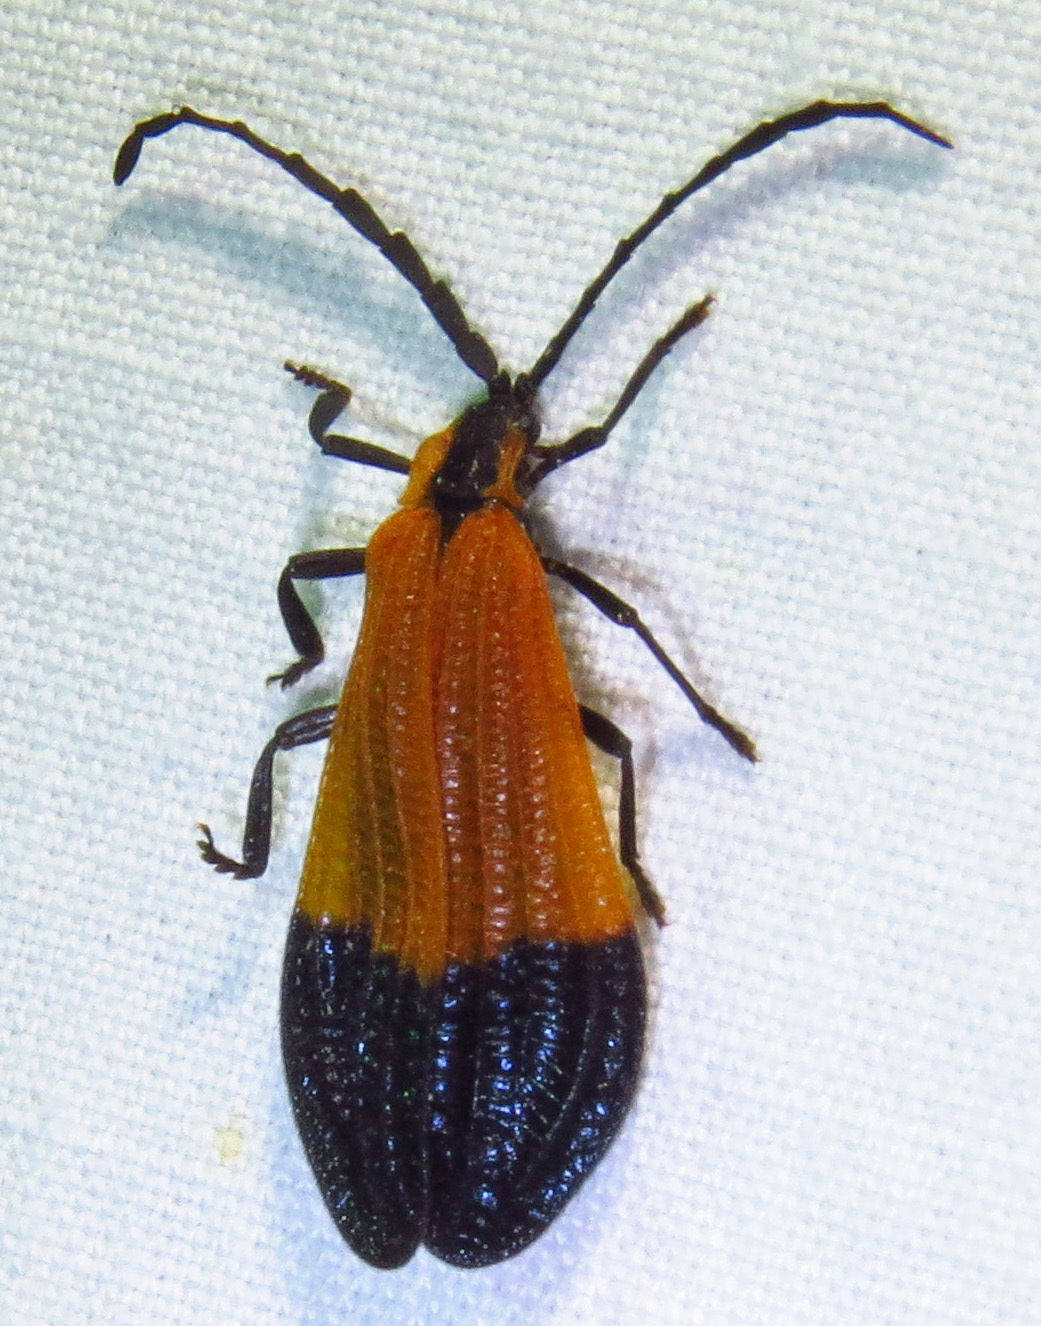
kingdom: Animalia
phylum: Arthropoda
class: Insecta
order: Coleoptera
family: Lycidae
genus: Calopteron
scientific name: Calopteron terminale
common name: End band net-winged beetle
